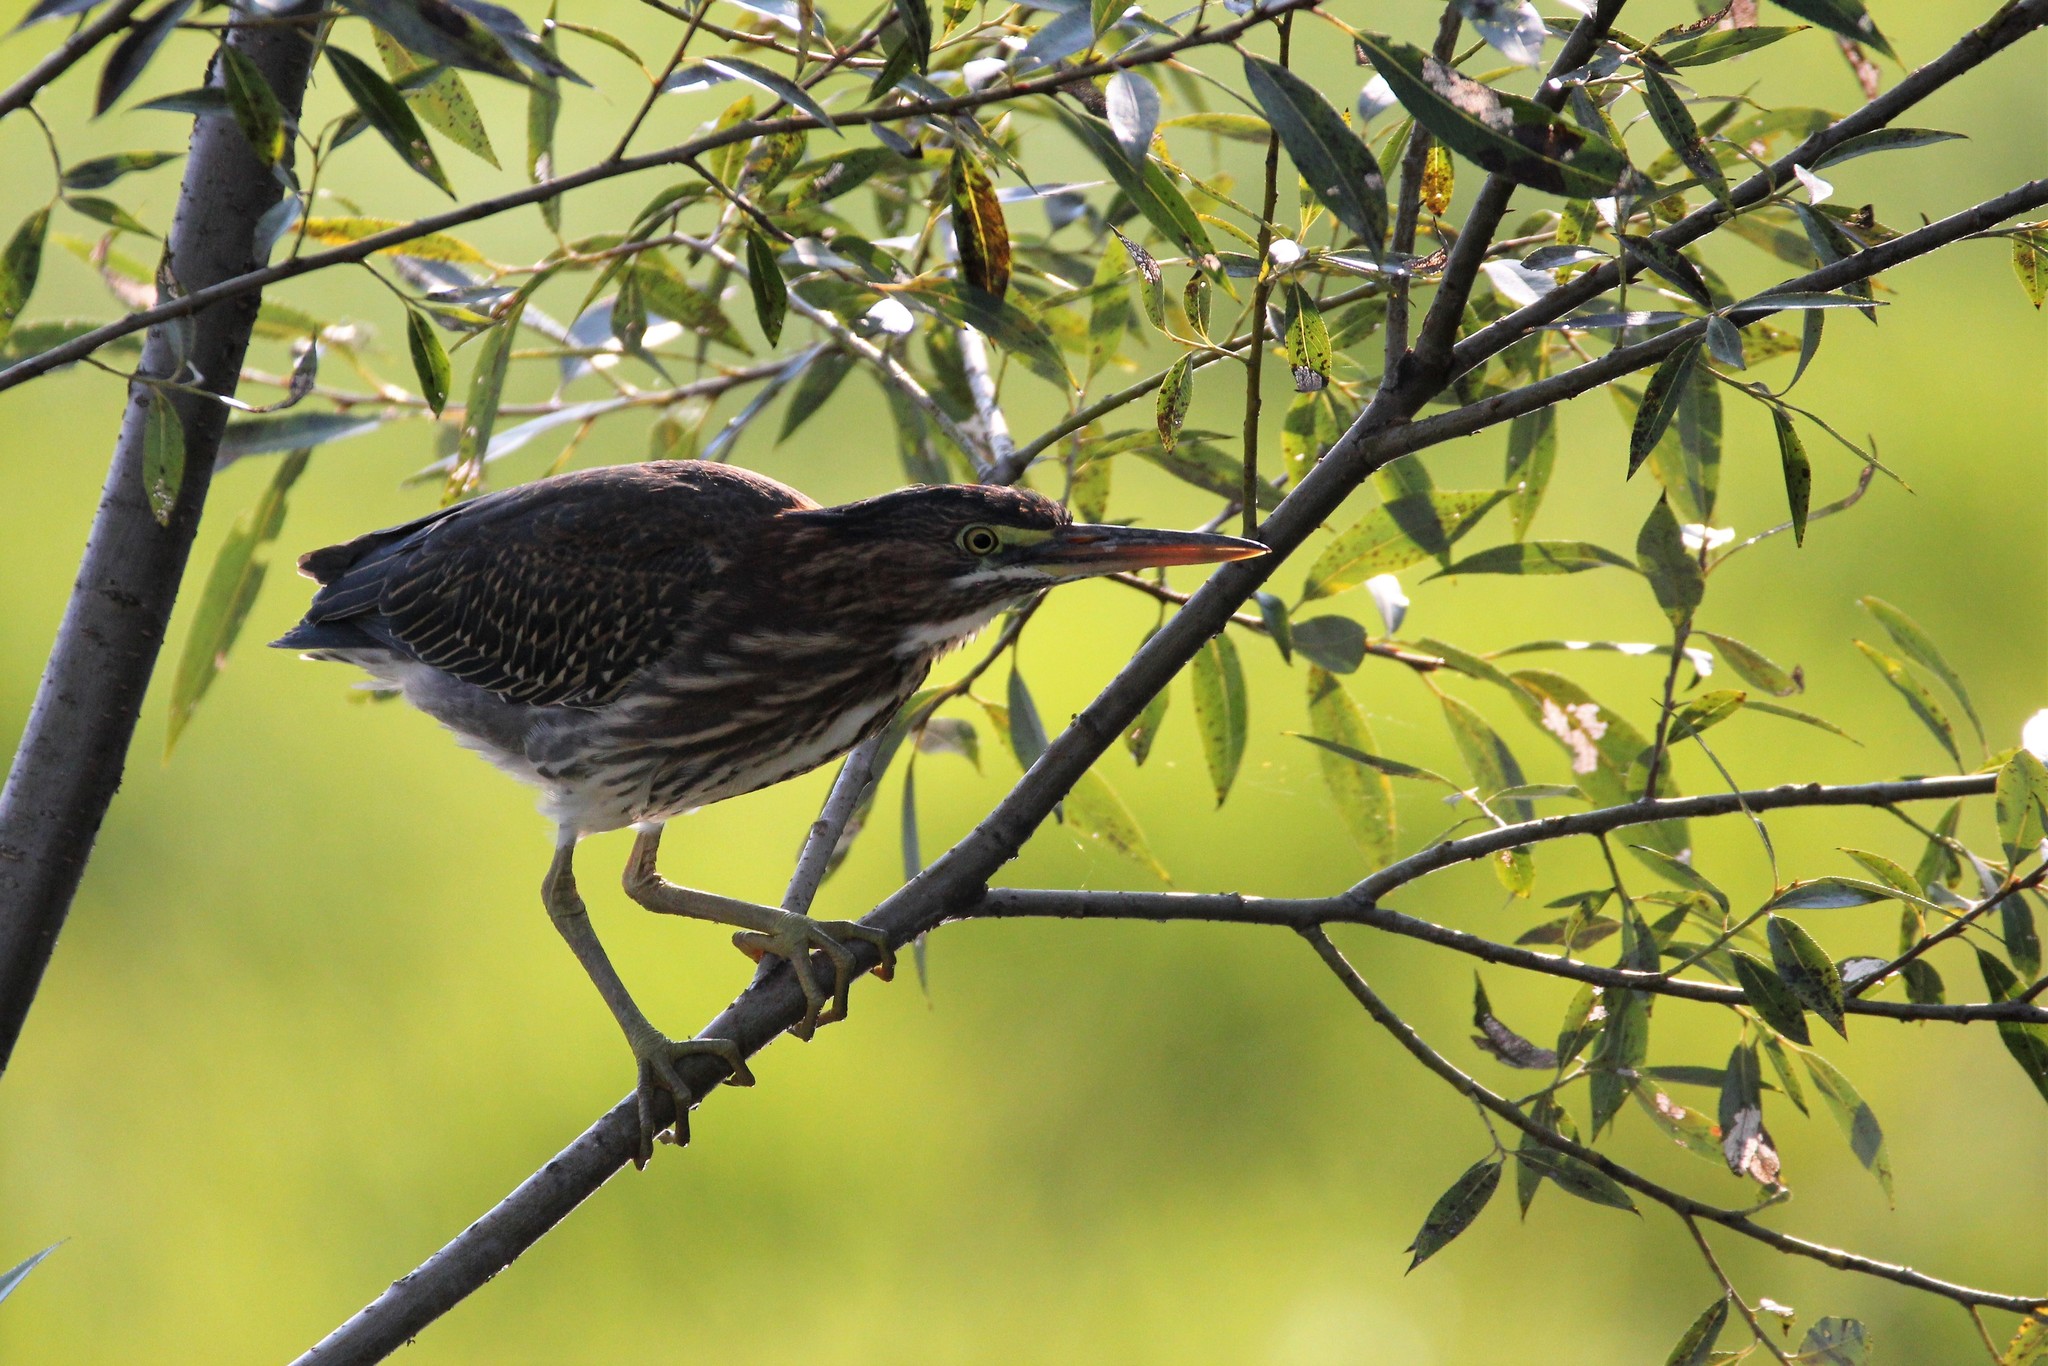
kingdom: Animalia
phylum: Chordata
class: Aves
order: Pelecaniformes
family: Ardeidae
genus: Butorides
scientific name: Butorides virescens
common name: Green heron
